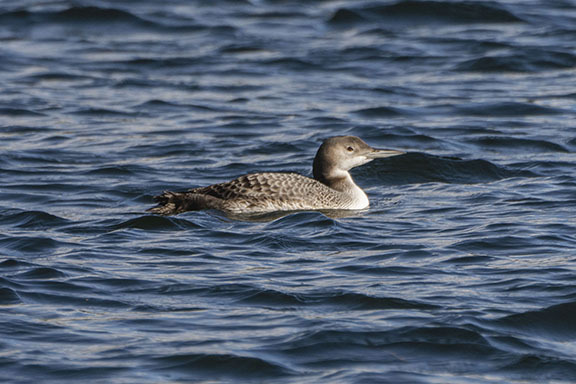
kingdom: Animalia
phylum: Chordata
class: Aves
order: Gaviiformes
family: Gaviidae
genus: Gavia
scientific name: Gavia immer
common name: Common loon
